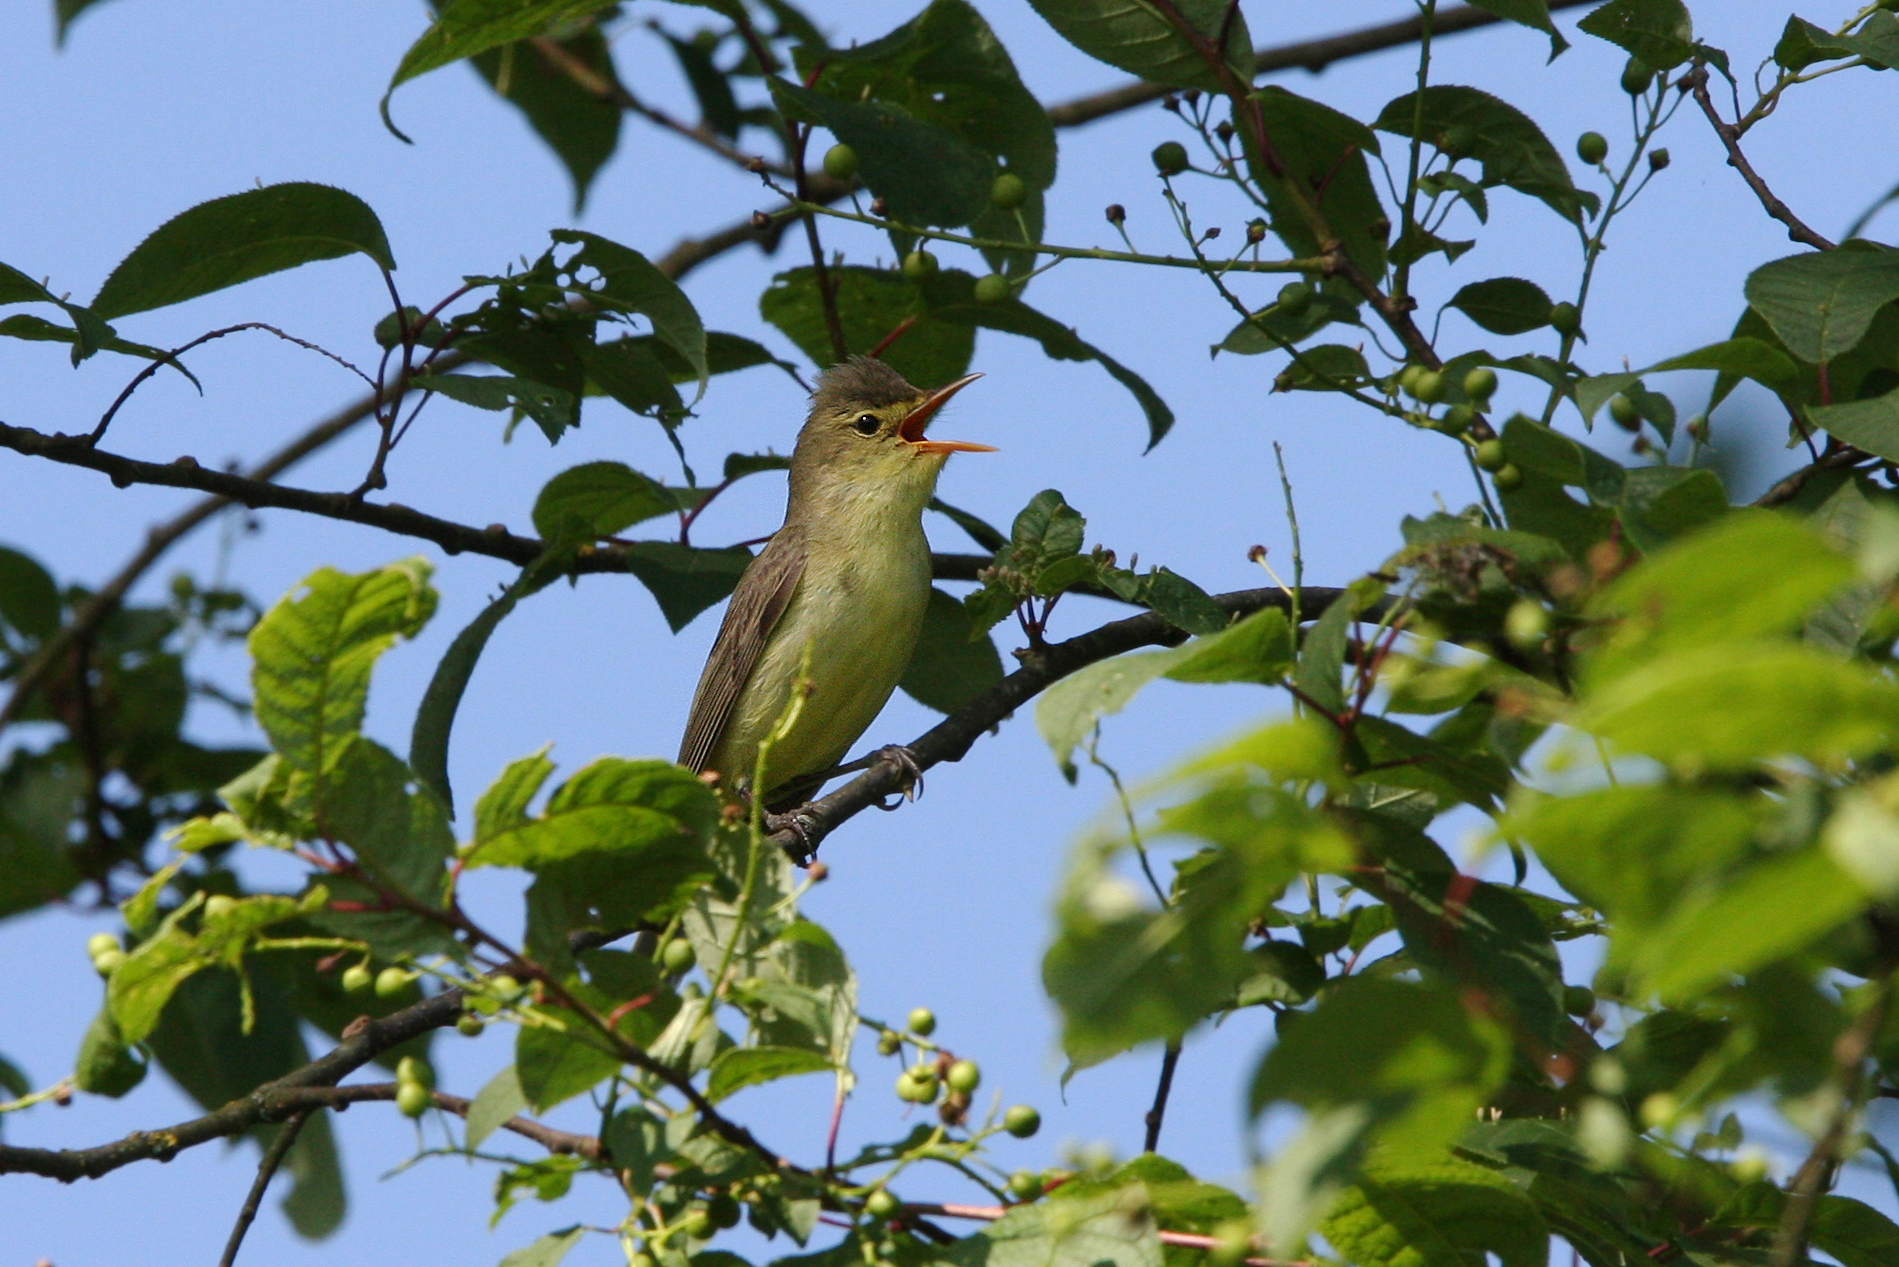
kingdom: Animalia
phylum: Chordata
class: Aves
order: Passeriformes
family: Acrocephalidae
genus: Hippolais
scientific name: Hippolais icterina
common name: Icterine warbler
